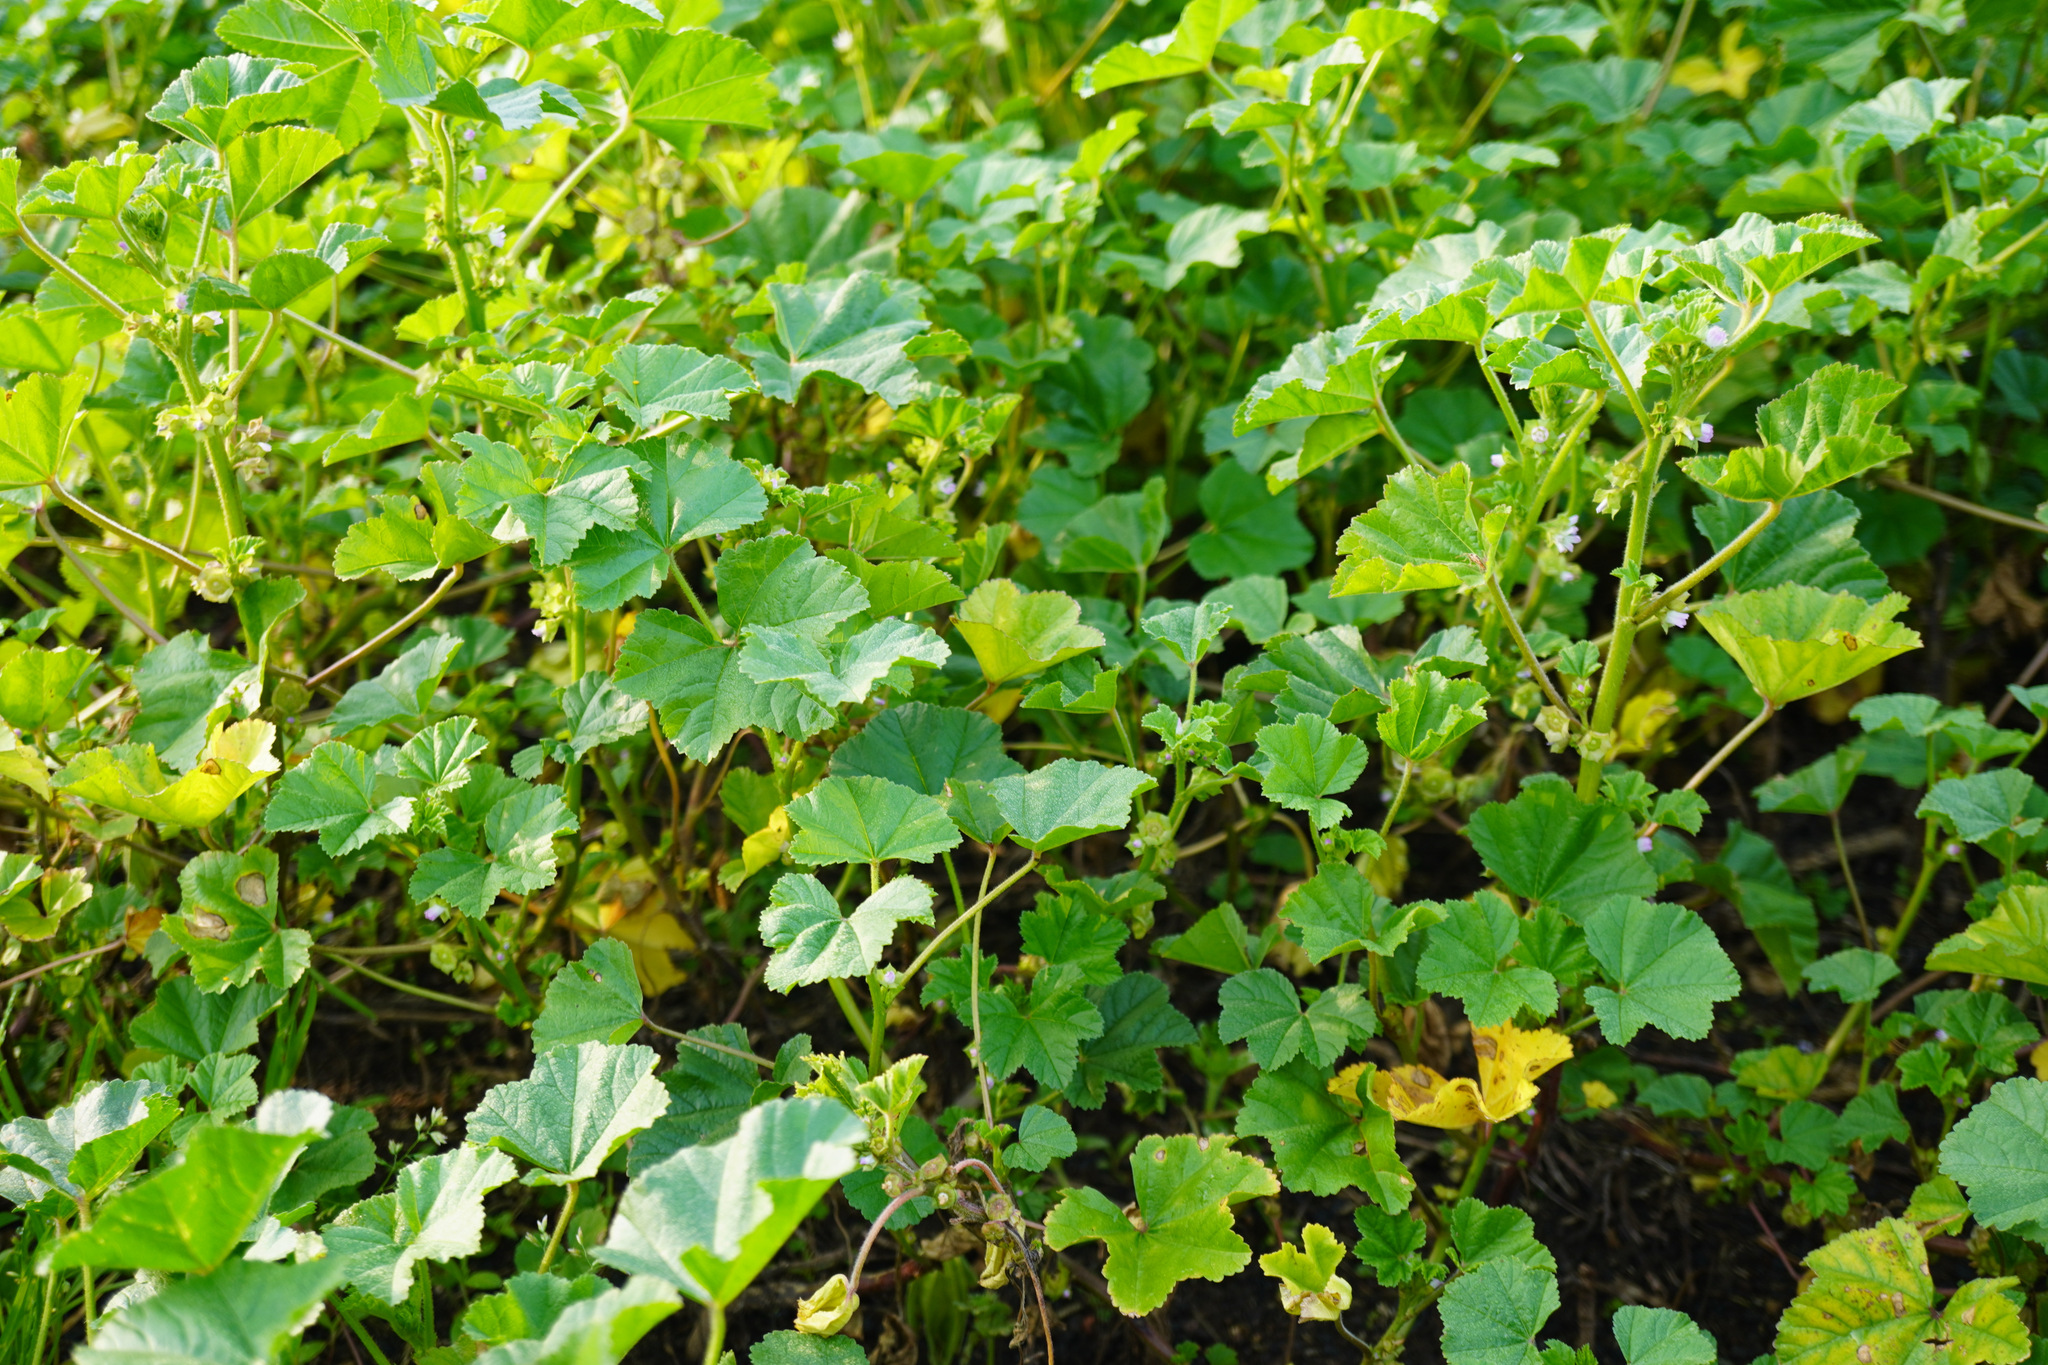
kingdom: Plantae
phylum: Tracheophyta
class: Magnoliopsida
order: Malvales
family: Malvaceae
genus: Malva
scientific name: Malva neglecta
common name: Common mallow
